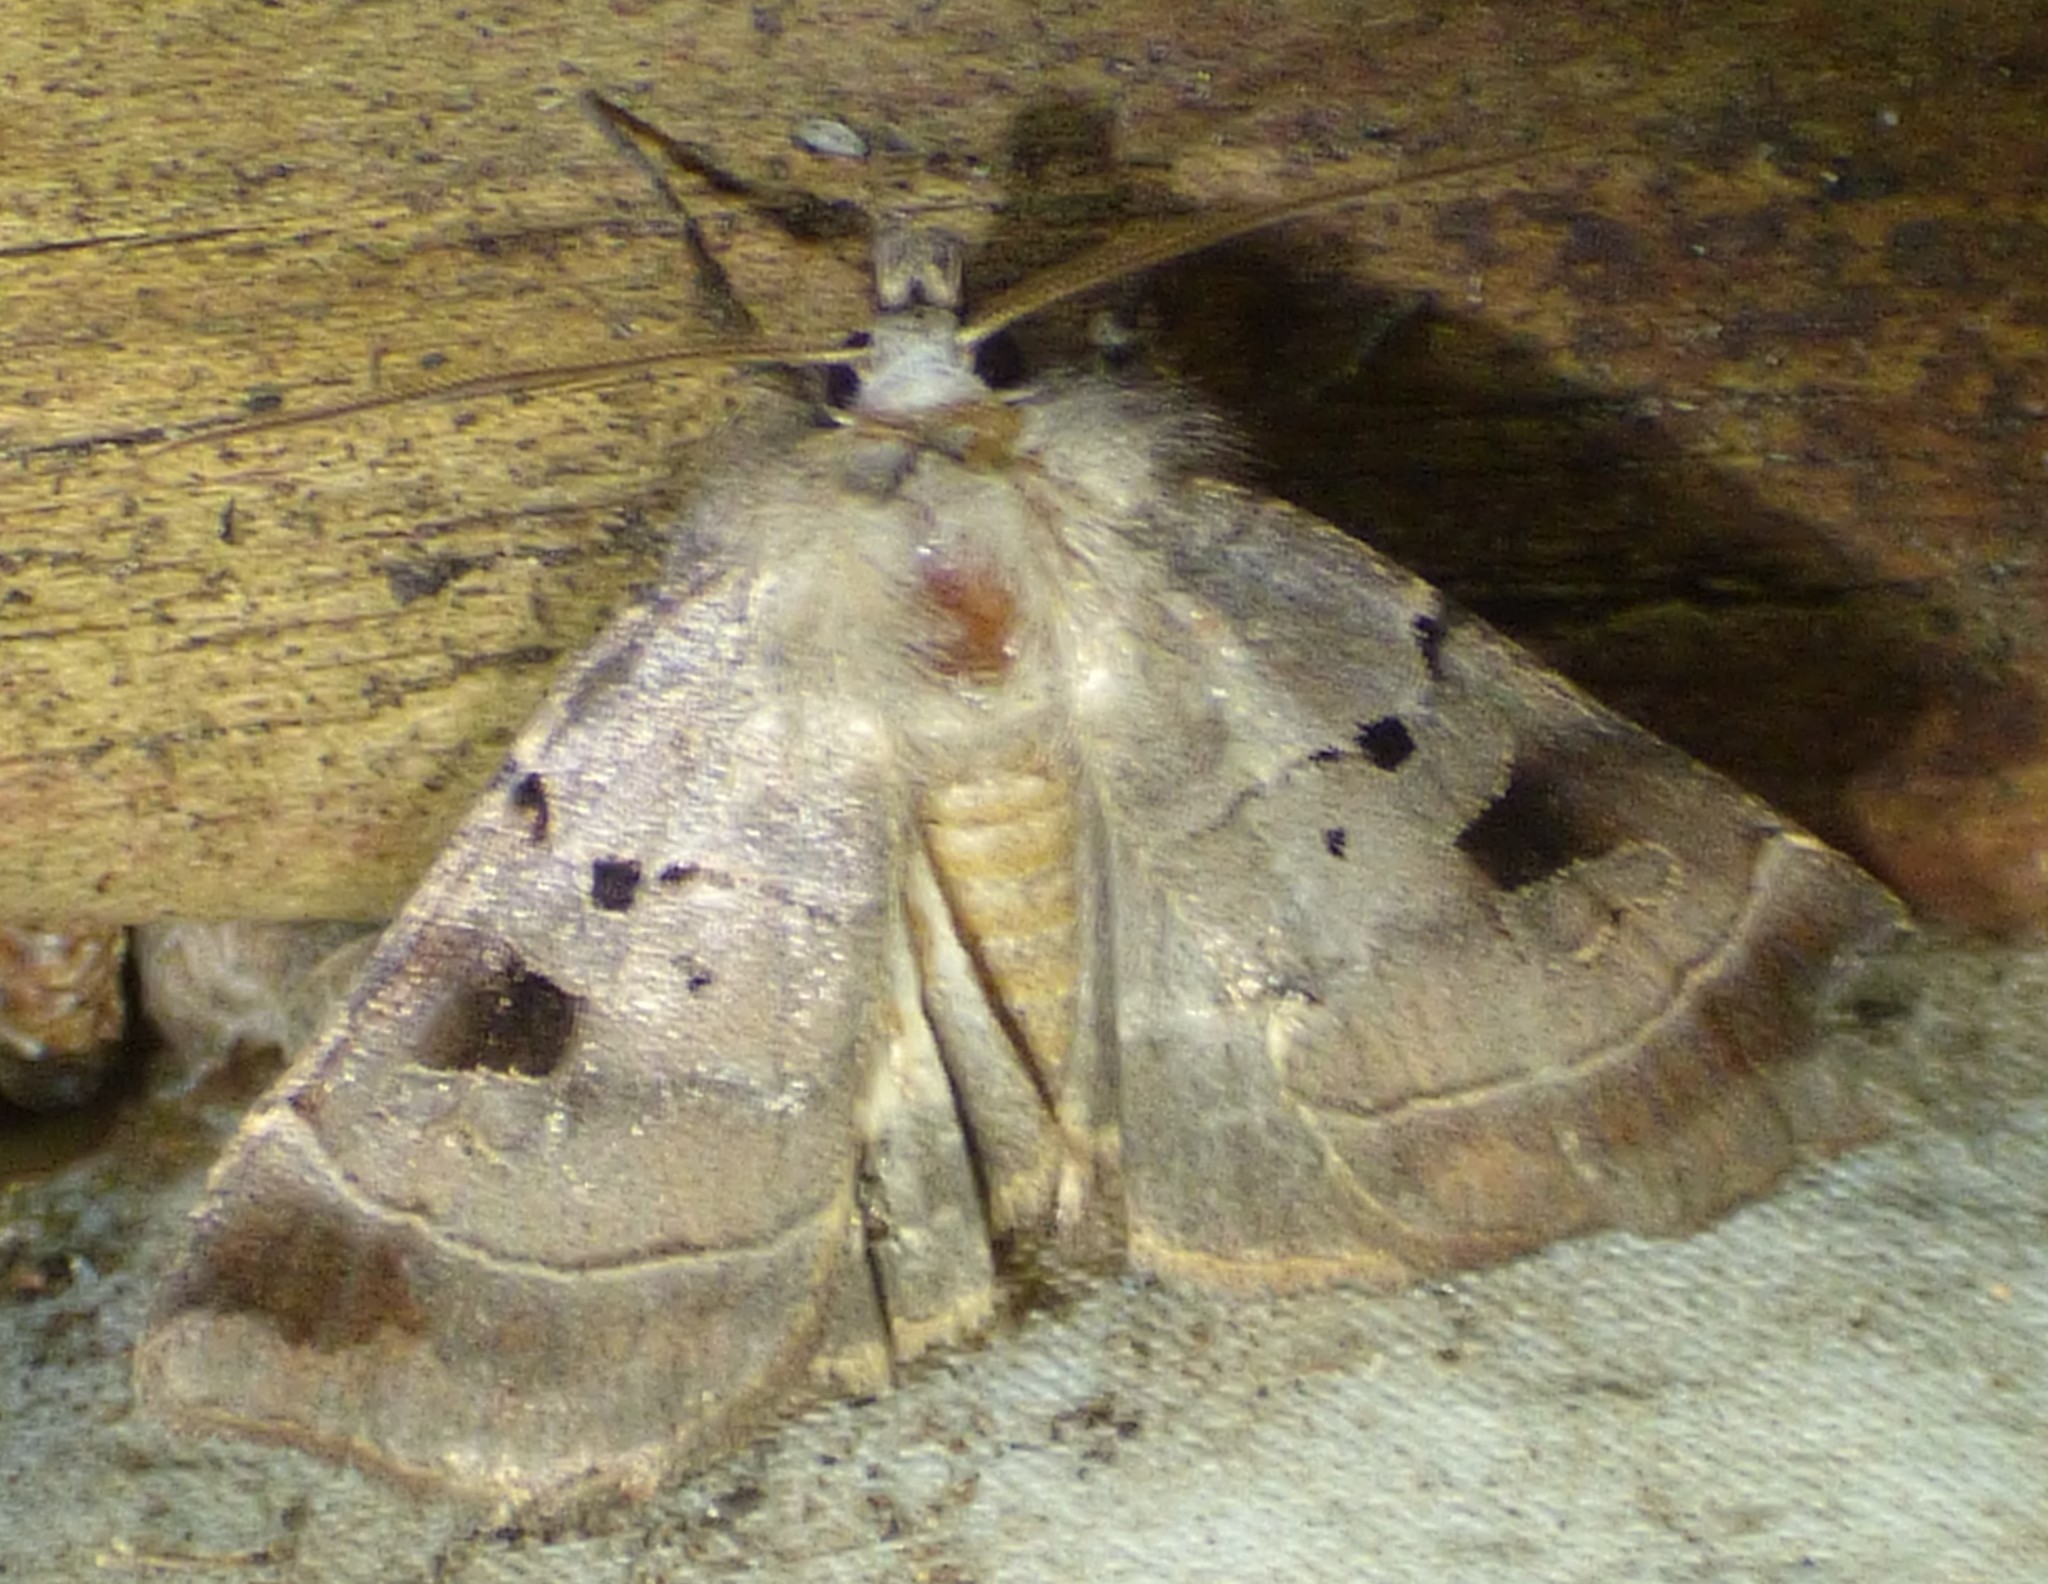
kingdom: Animalia
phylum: Arthropoda
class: Insecta
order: Lepidoptera
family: Noctuidae
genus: Agnorisma
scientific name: Agnorisma badinodis
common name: Pale-banded dart
